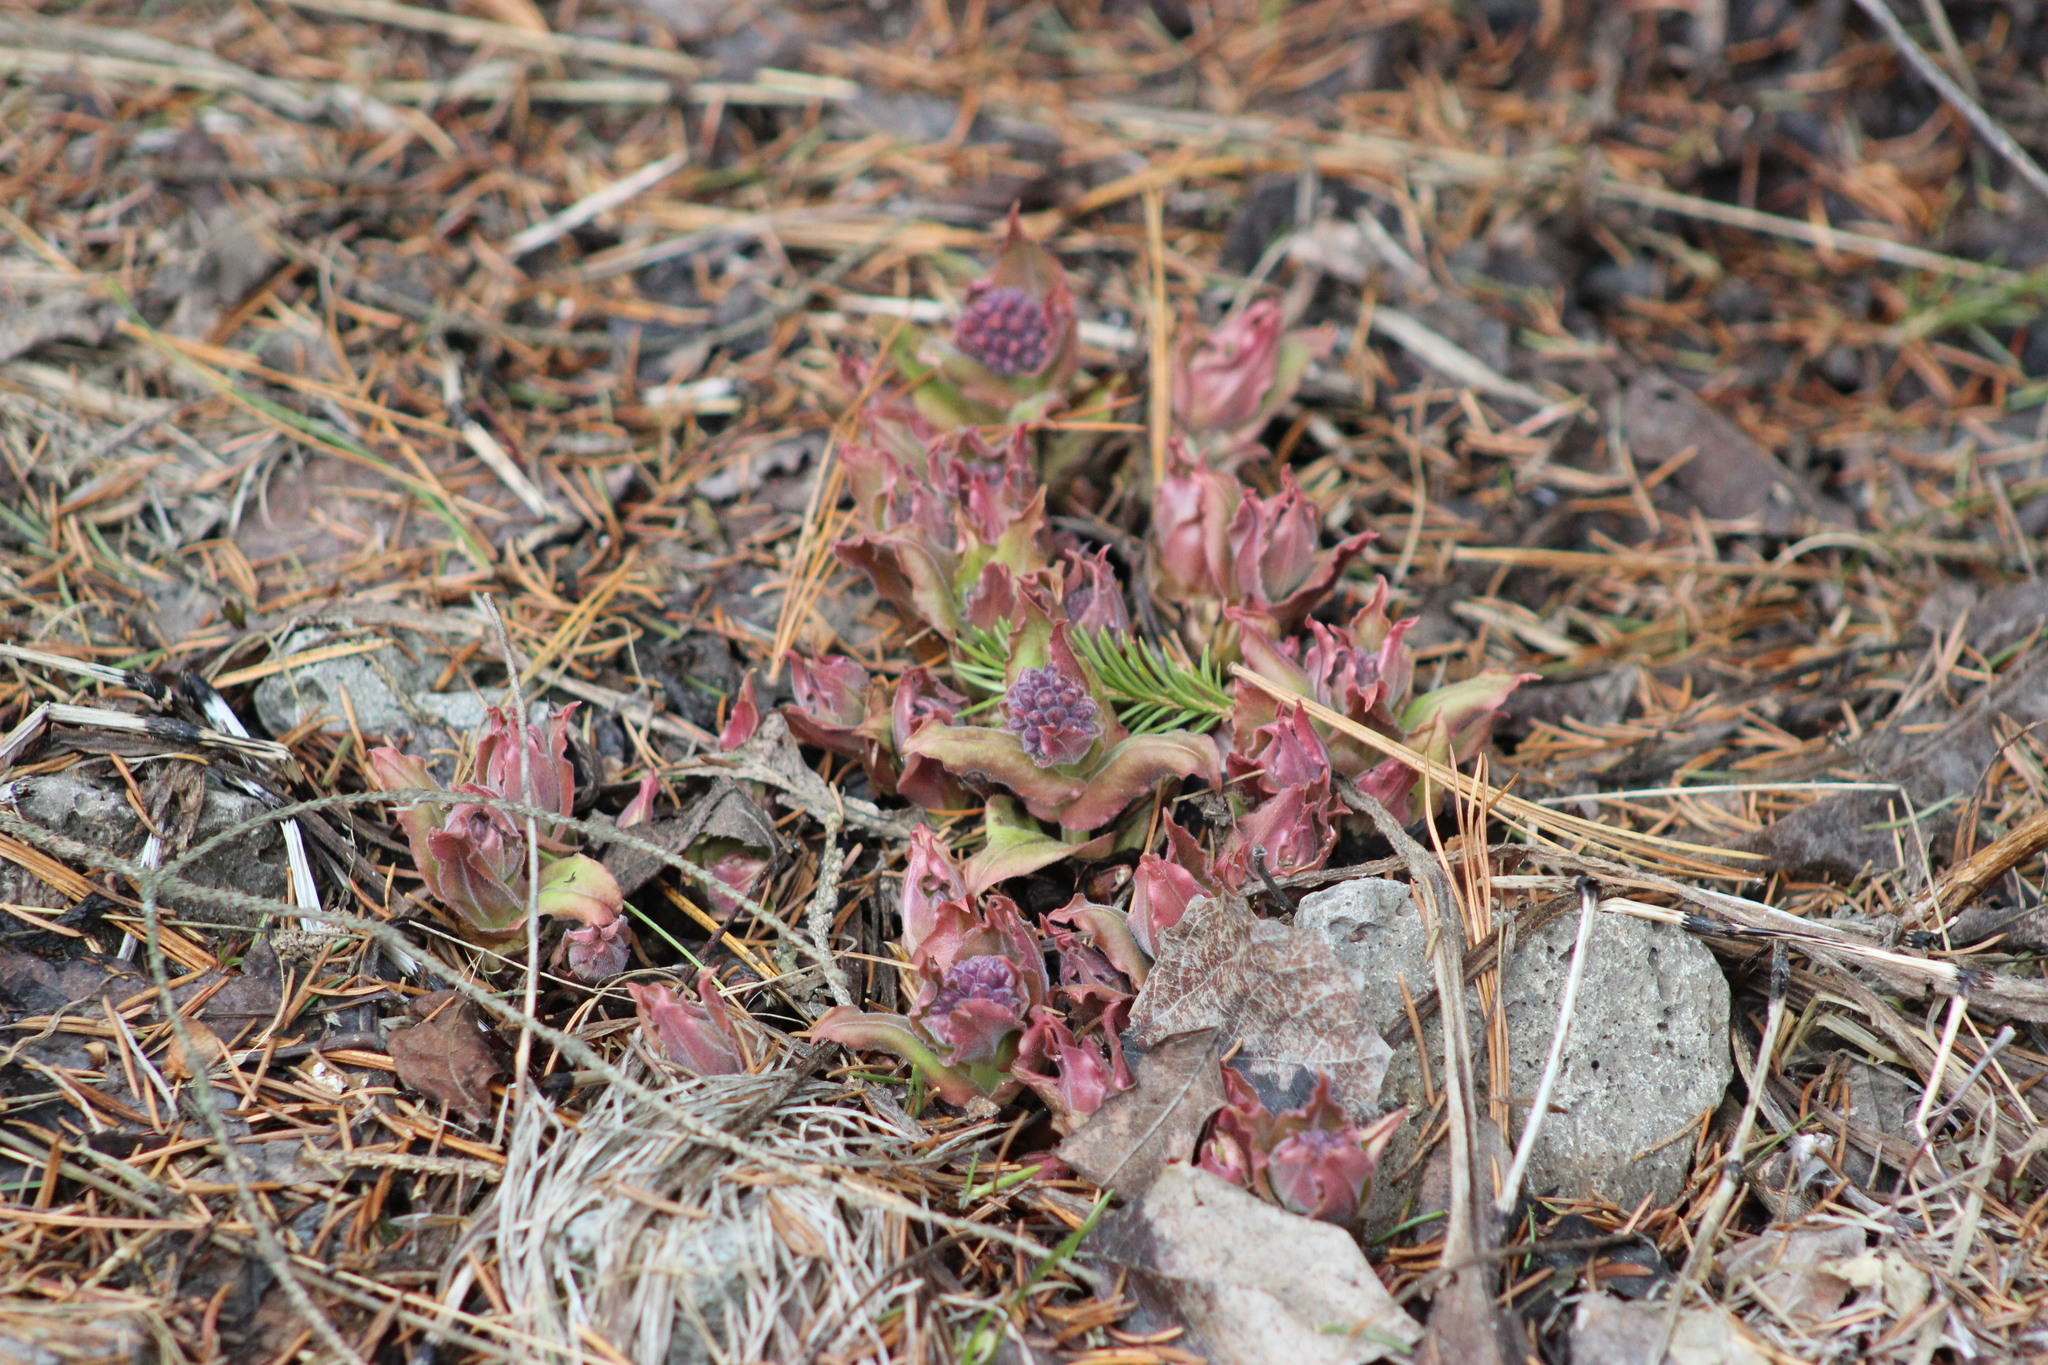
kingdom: Plantae
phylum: Tracheophyta
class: Magnoliopsida
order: Boraginales
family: Boraginaceae
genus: Pulmonaria
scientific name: Pulmonaria mollis
